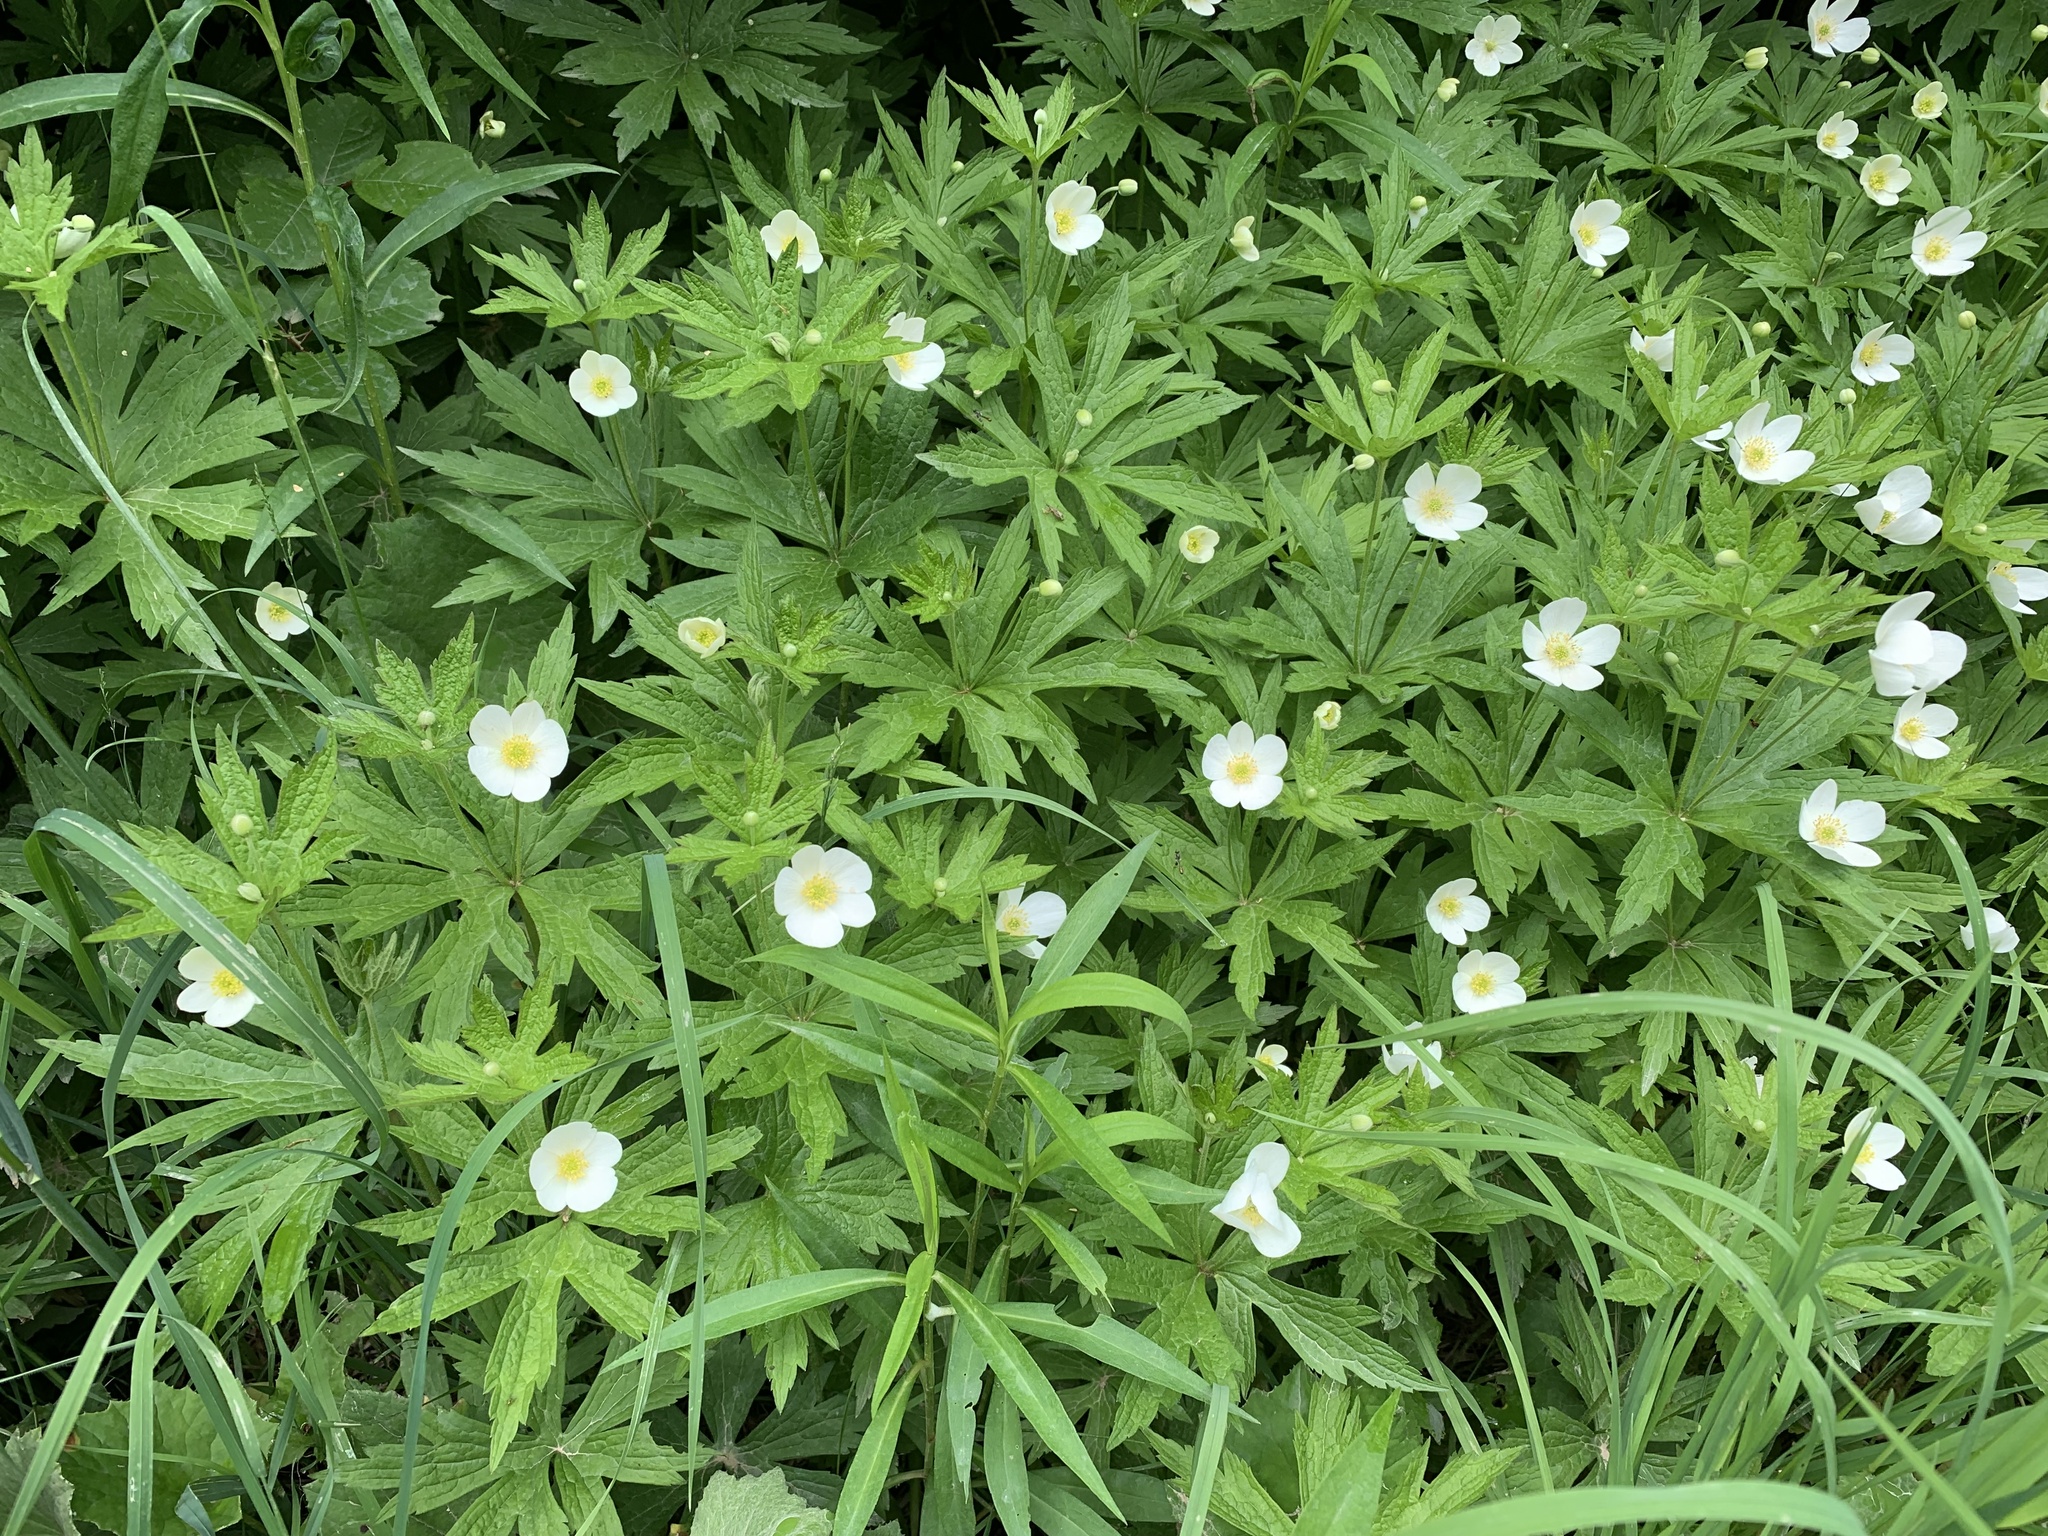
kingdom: Plantae
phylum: Tracheophyta
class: Magnoliopsida
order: Ranunculales
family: Ranunculaceae
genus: Anemonastrum
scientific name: Anemonastrum canadense
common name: Canada anemone
